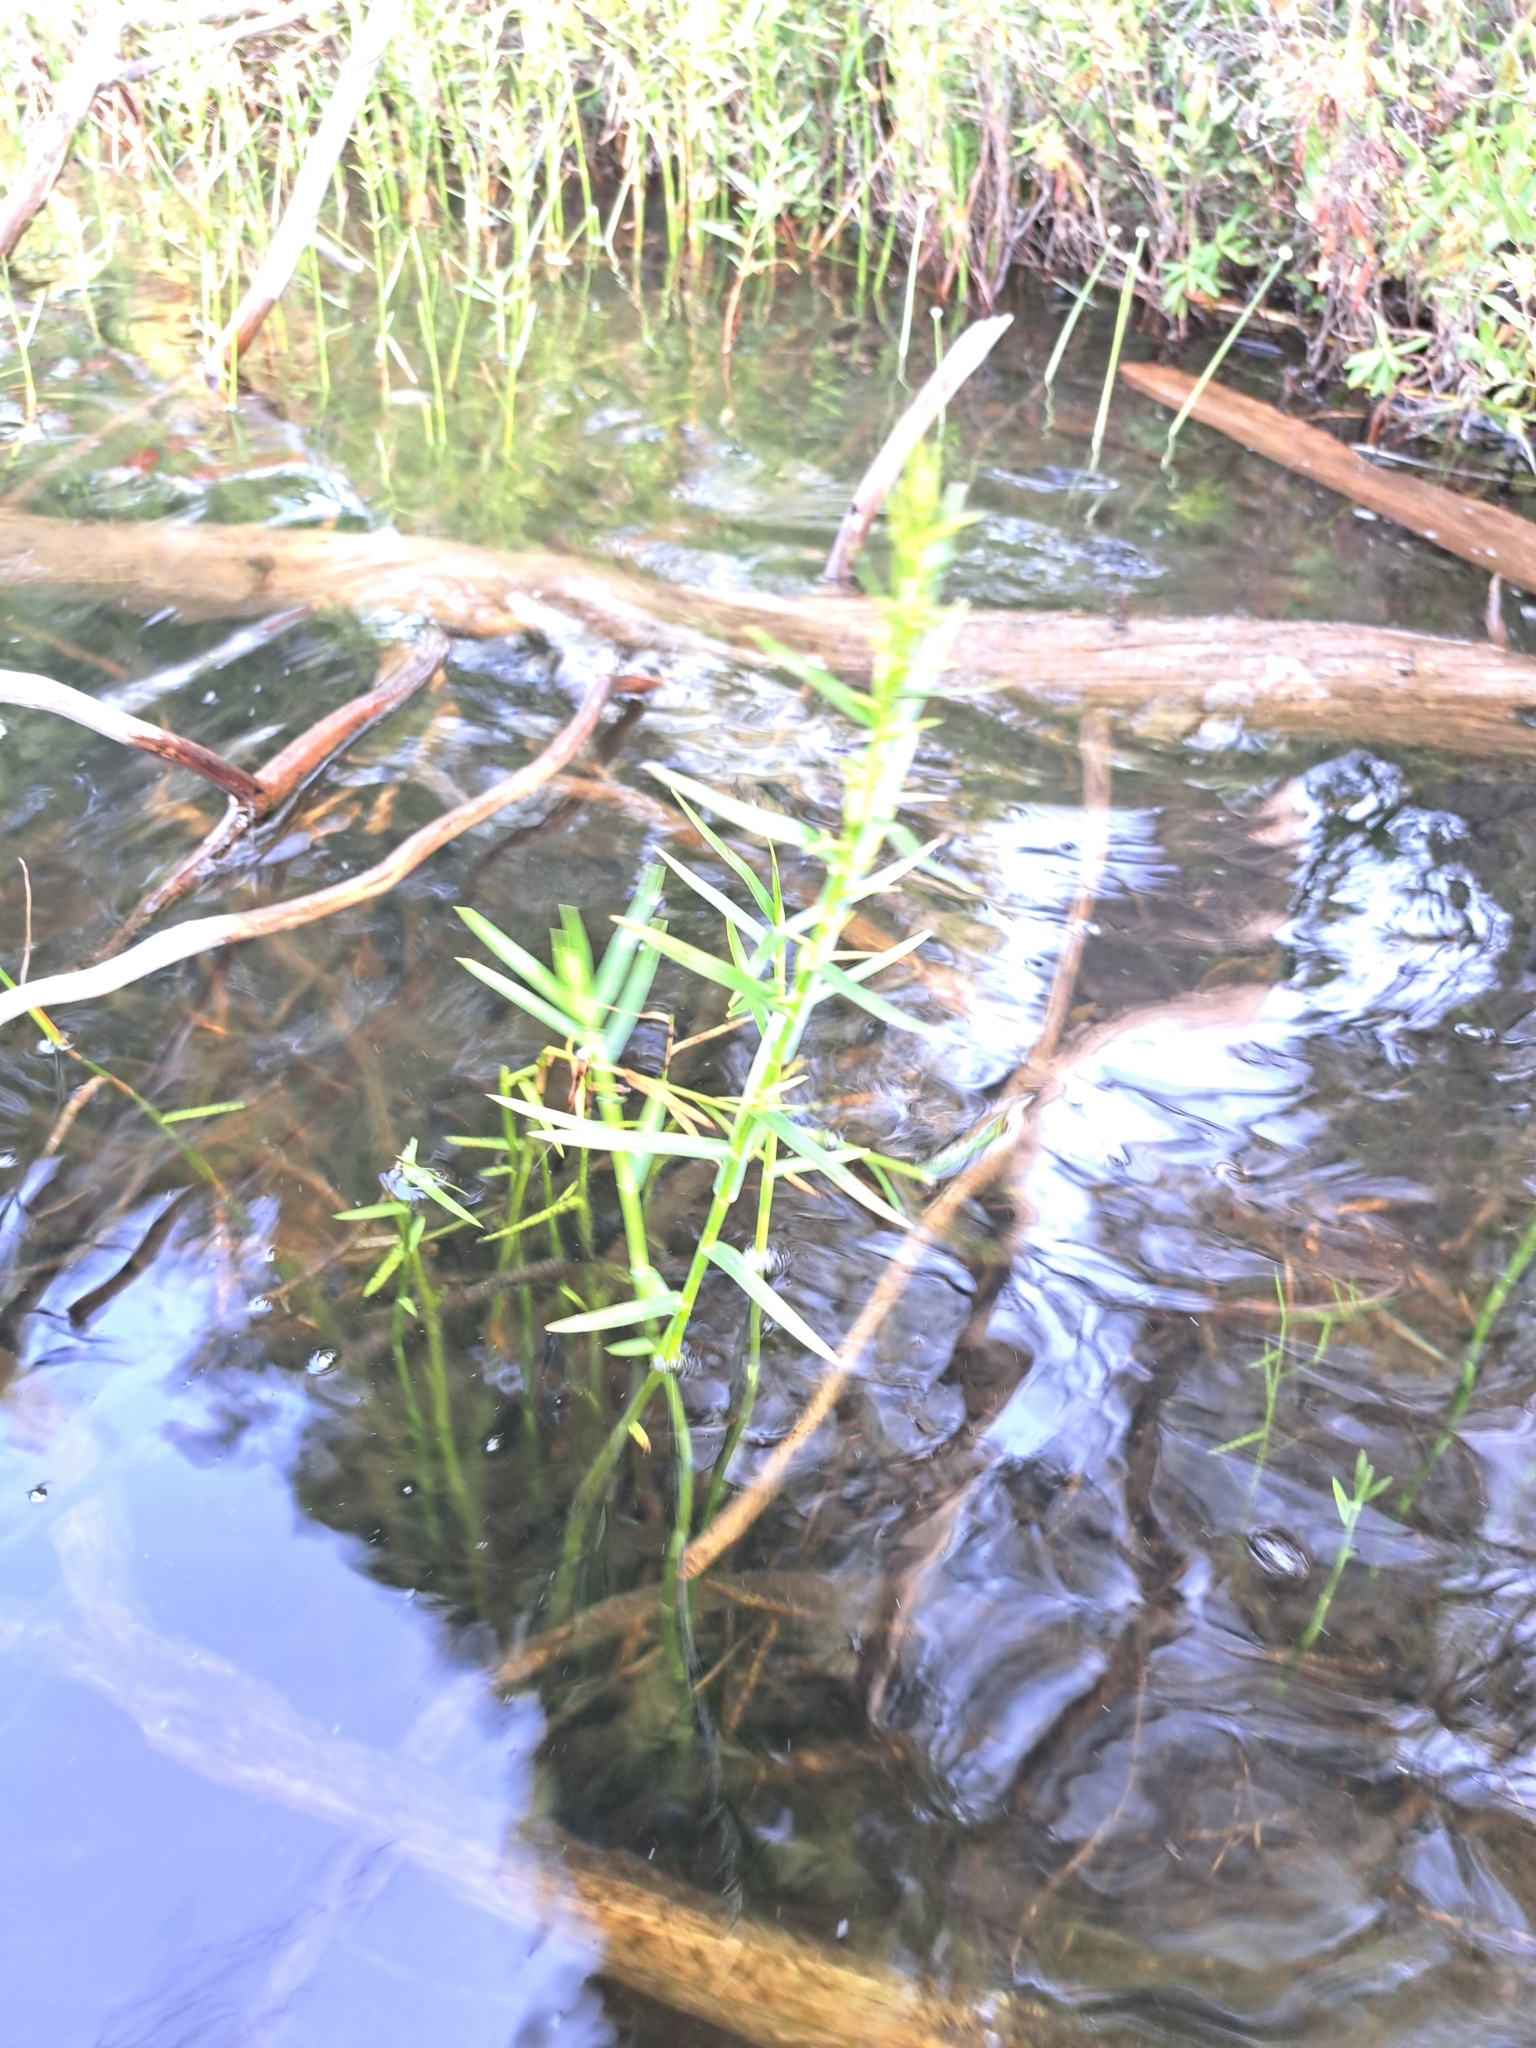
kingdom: Plantae
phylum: Tracheophyta
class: Liliopsida
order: Poales
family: Cyperaceae
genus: Dulichium
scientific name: Dulichium arundinaceum
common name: Three-way sedge
